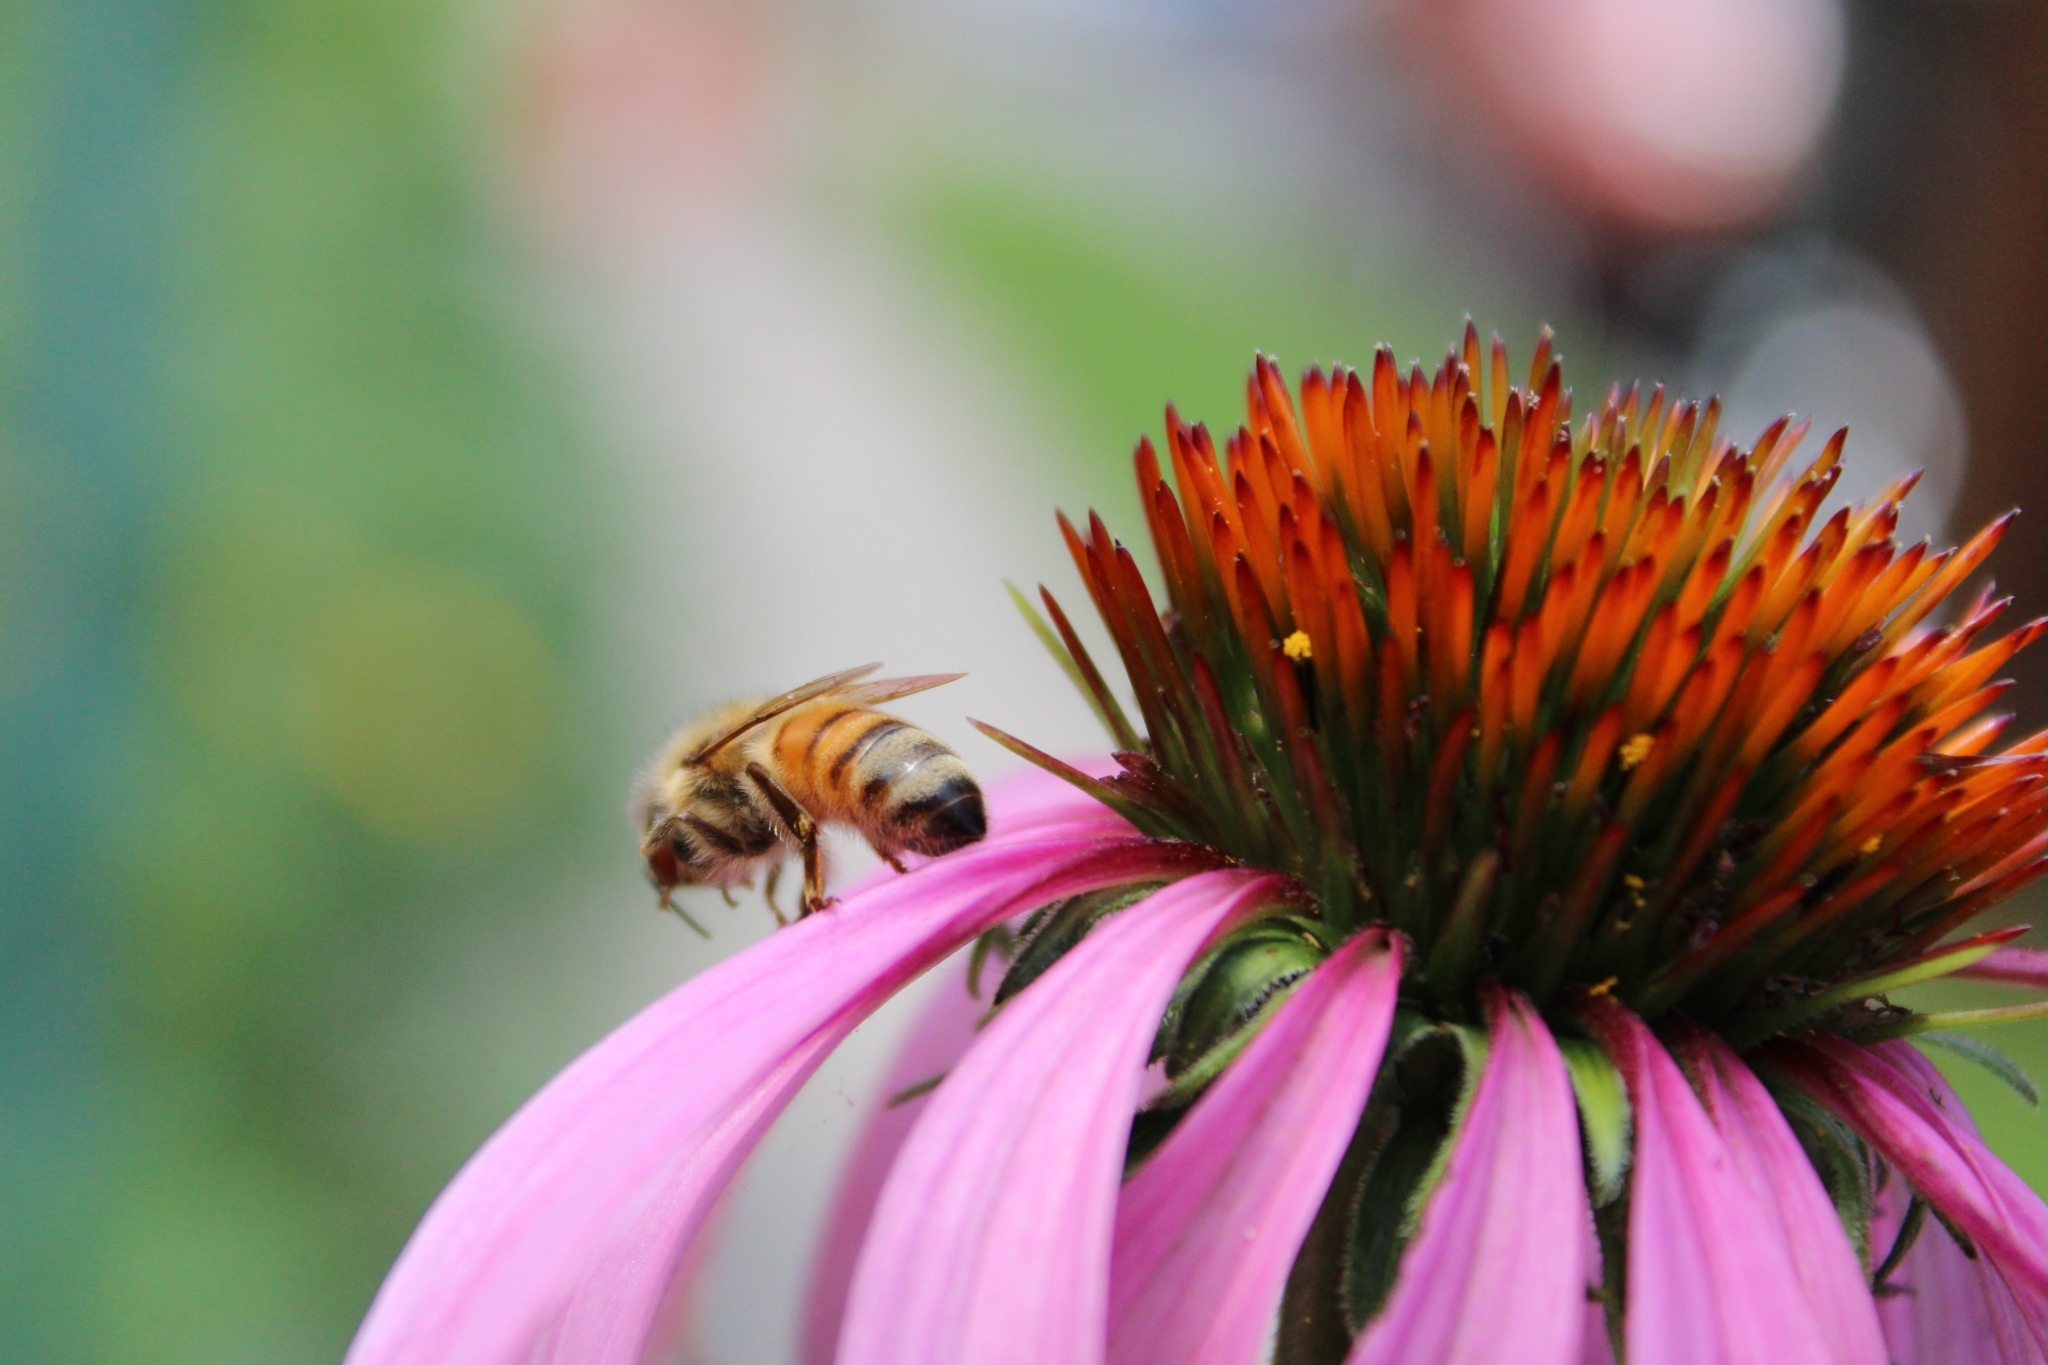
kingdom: Animalia
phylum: Arthropoda
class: Insecta
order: Hymenoptera
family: Apidae
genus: Apis
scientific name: Apis mellifera
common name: Honey bee
